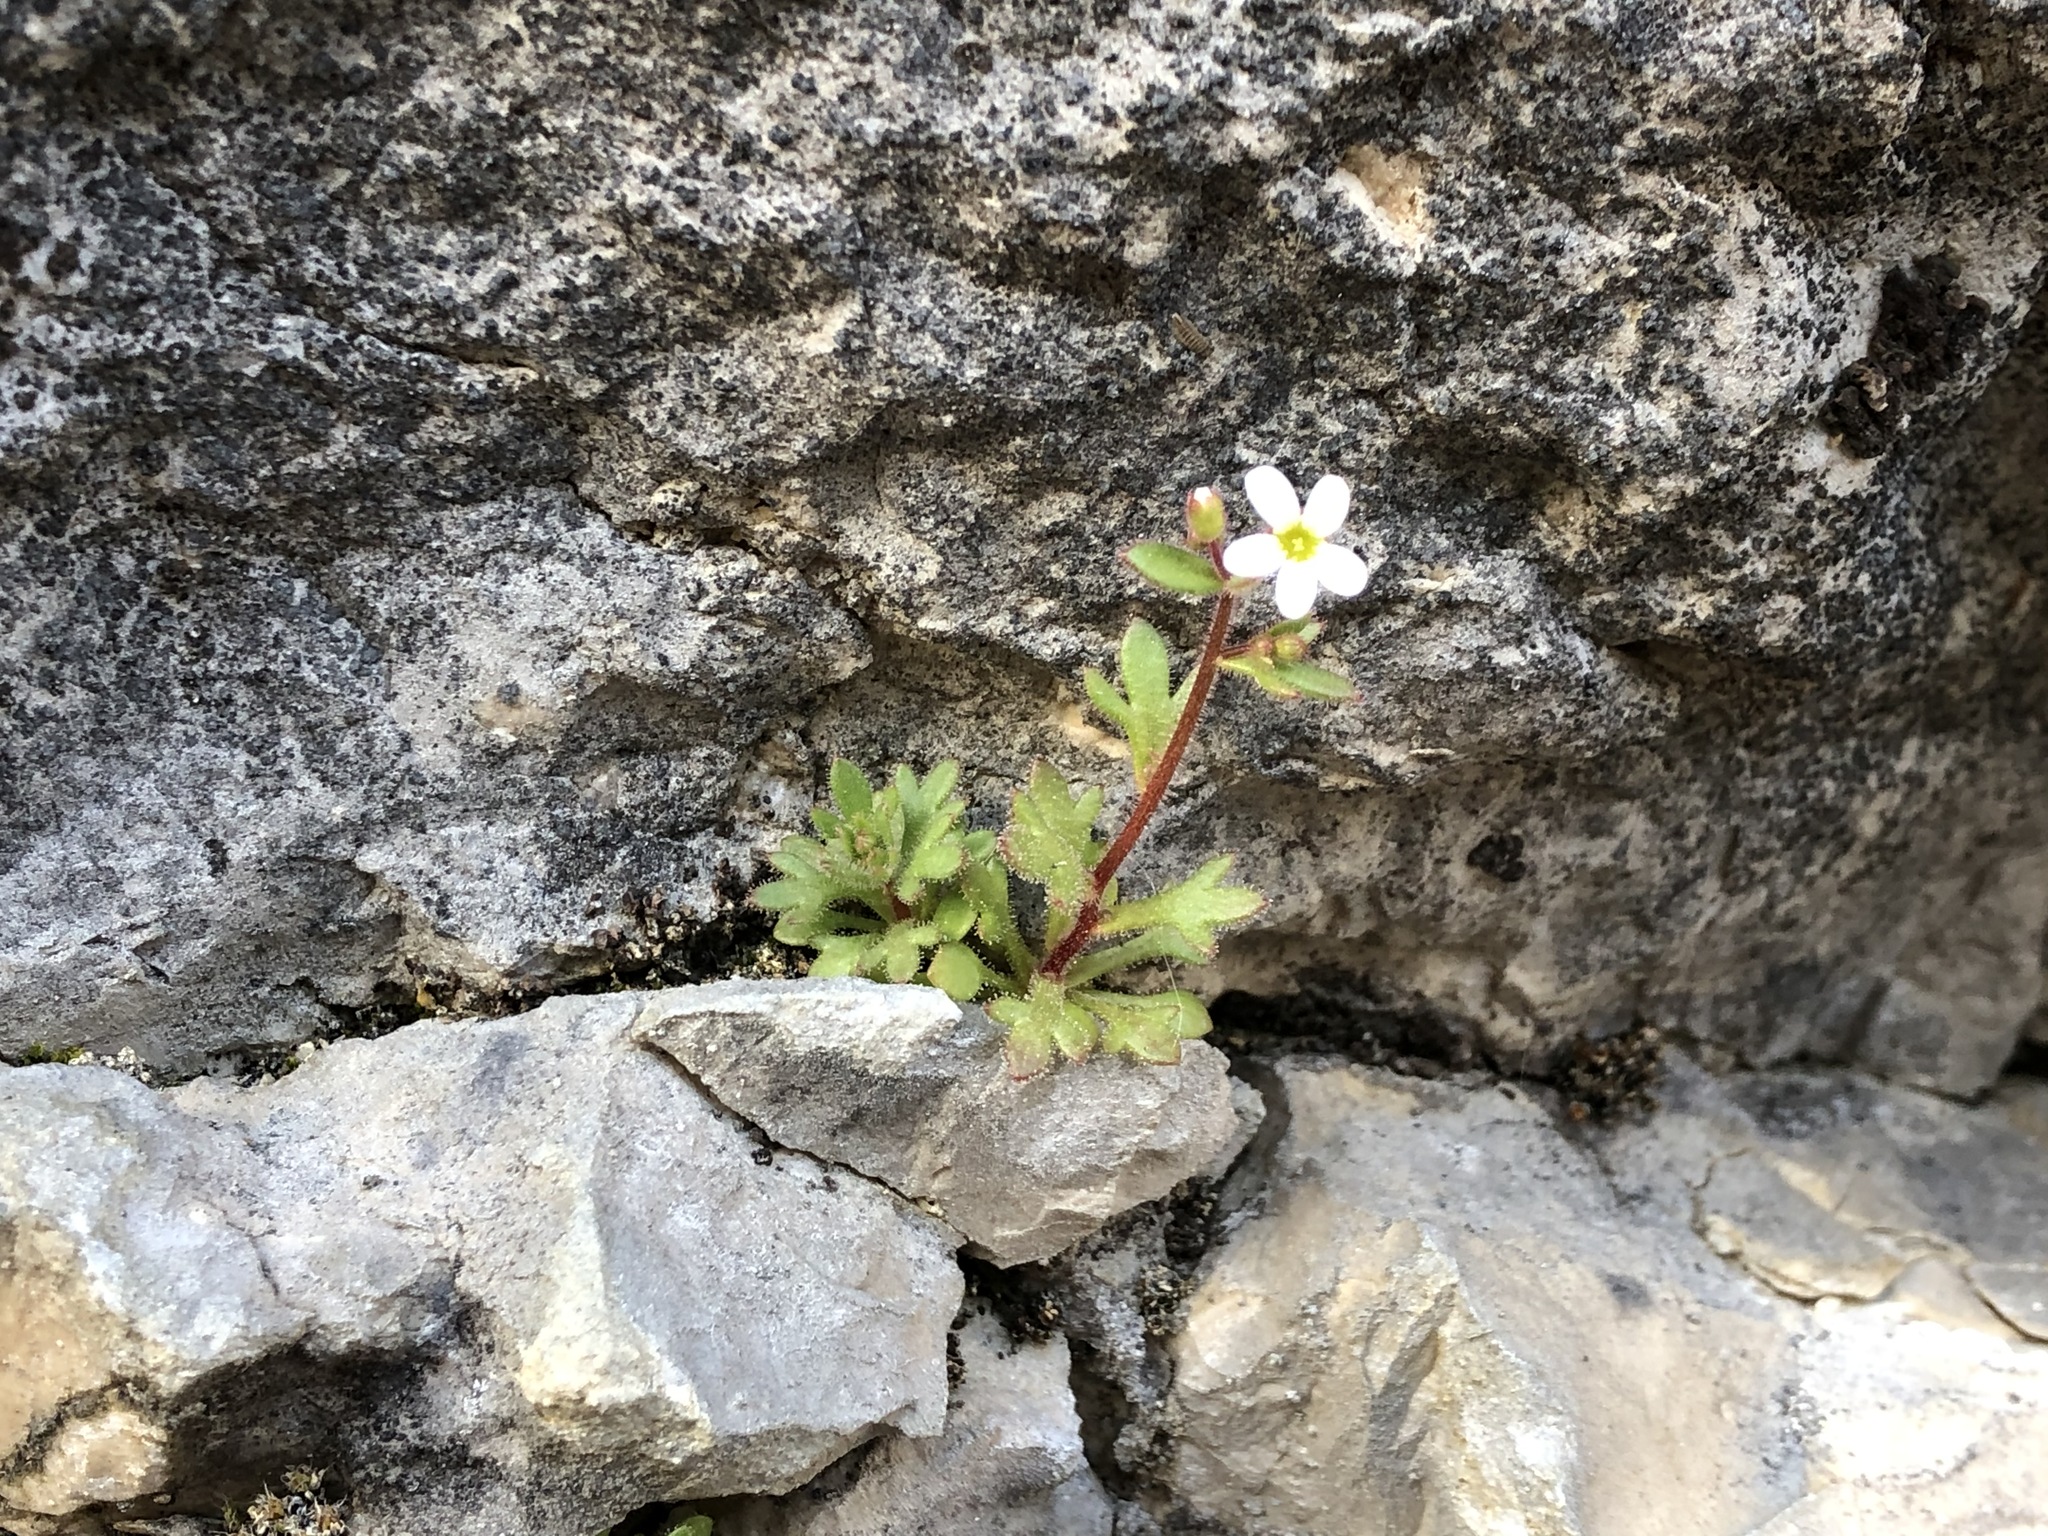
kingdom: Plantae
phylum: Tracheophyta
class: Magnoliopsida
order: Saxifragales
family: Saxifragaceae
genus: Saxifraga
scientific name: Saxifraga tridactylites
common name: Rue-leaved saxifrage
